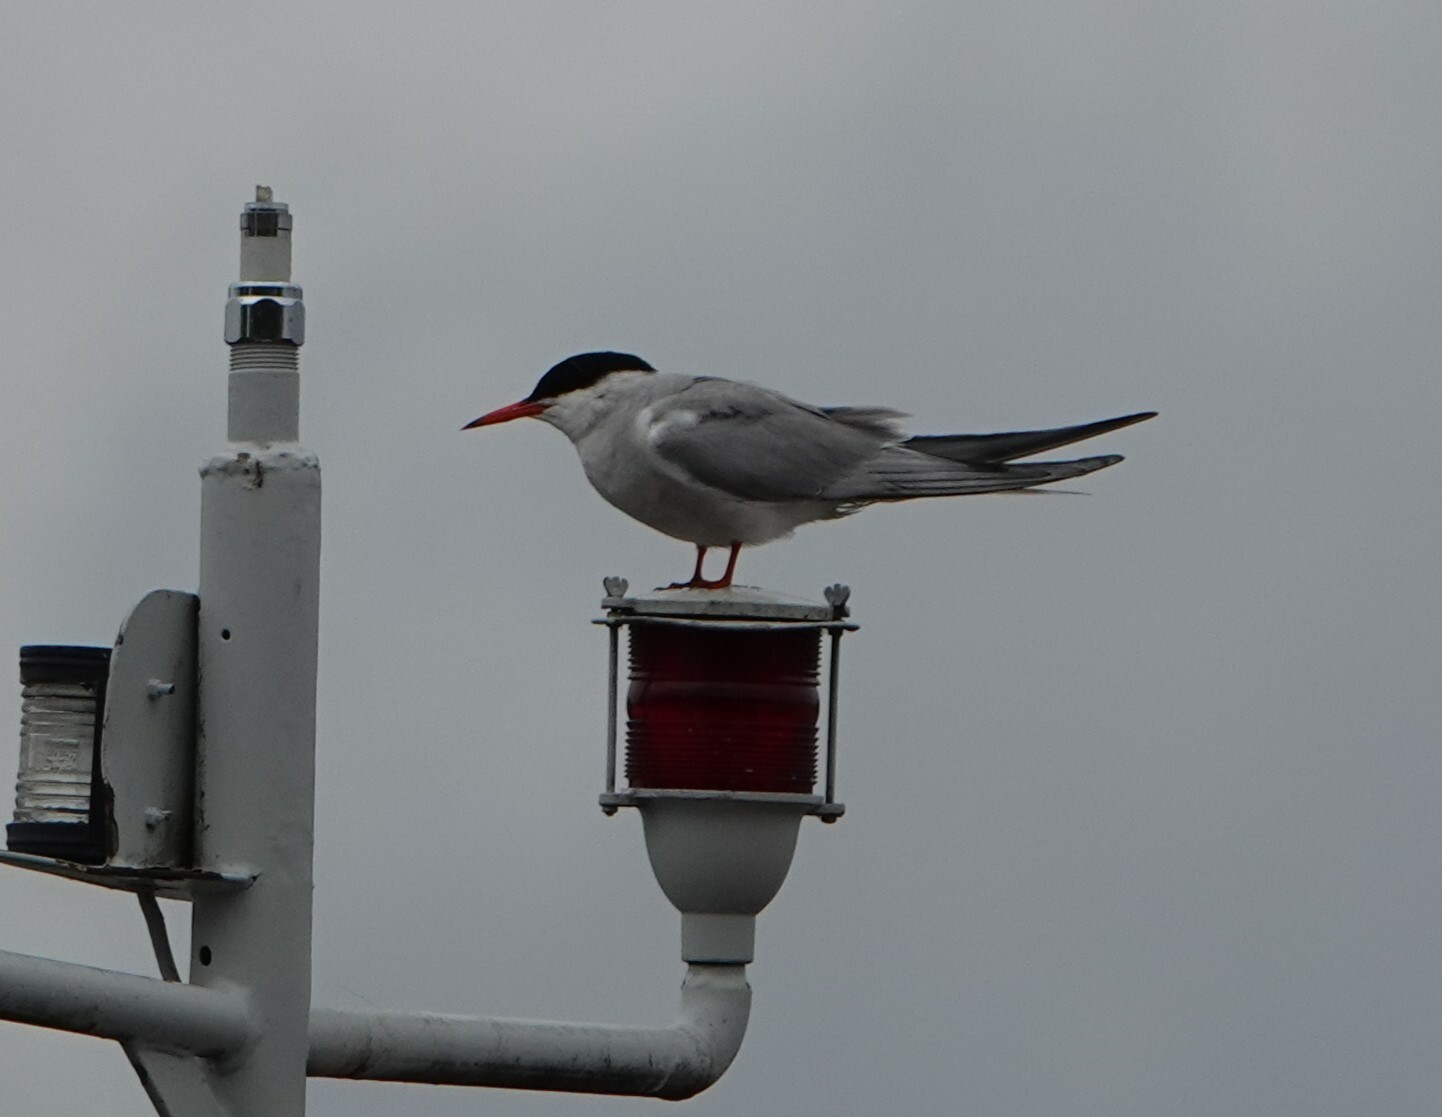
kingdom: Animalia
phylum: Chordata
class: Aves
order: Charadriiformes
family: Laridae
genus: Sterna
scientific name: Sterna hirundo
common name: Common tern
